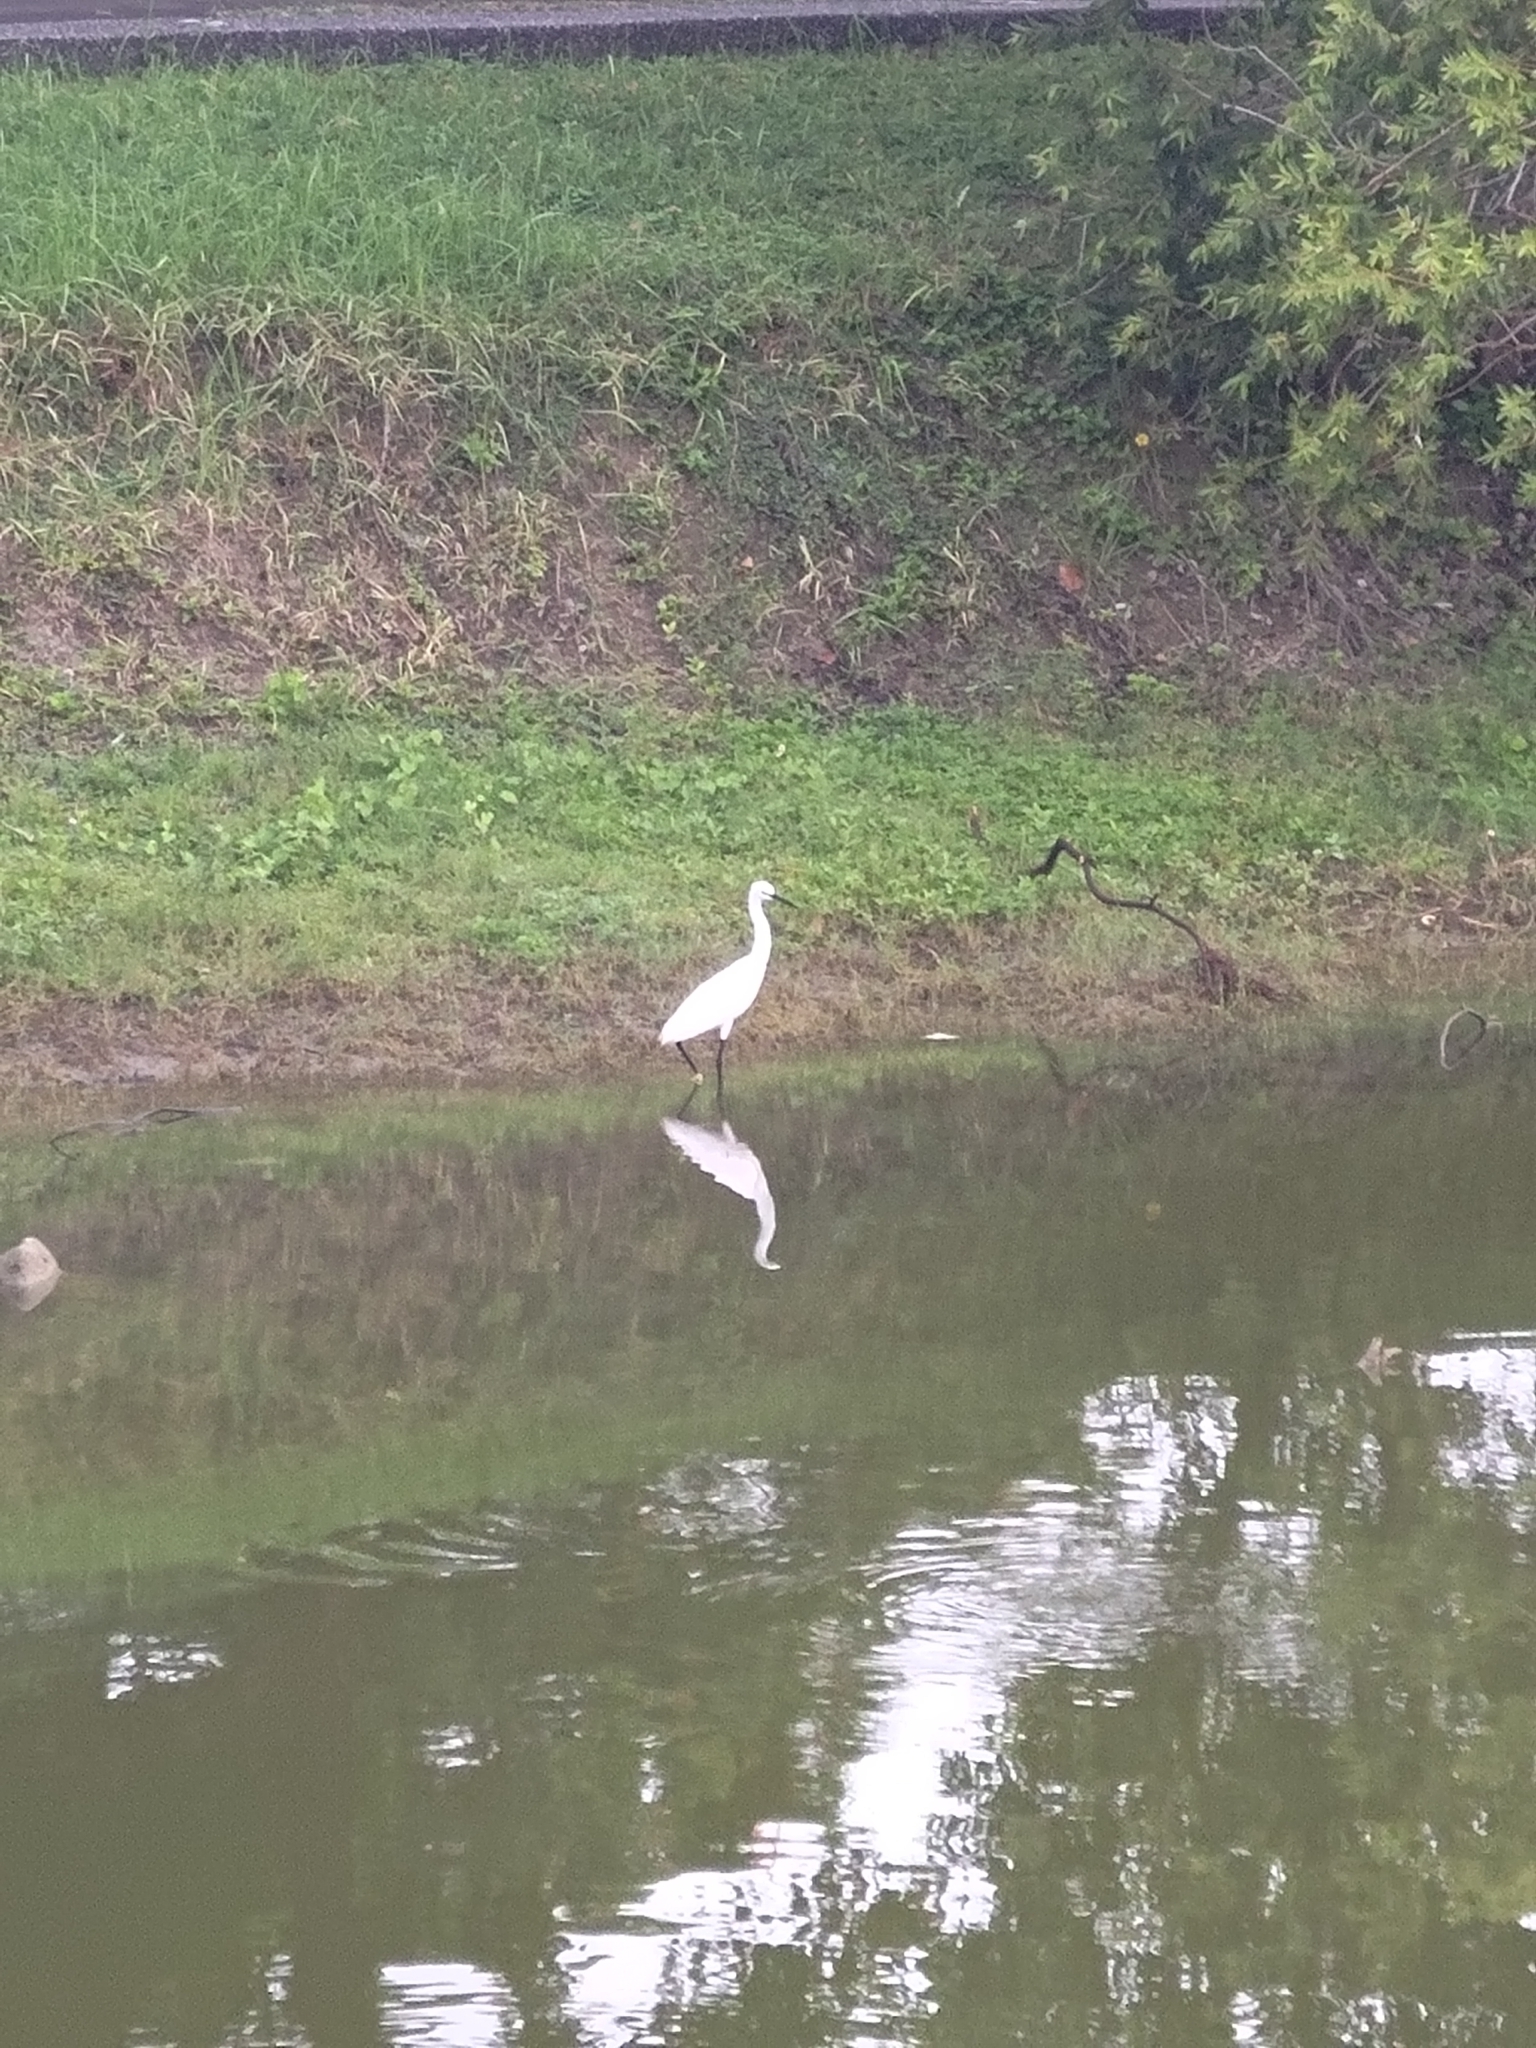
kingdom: Animalia
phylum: Chordata
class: Aves
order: Pelecaniformes
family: Ardeidae
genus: Egretta
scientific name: Egretta garzetta
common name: Little egret
